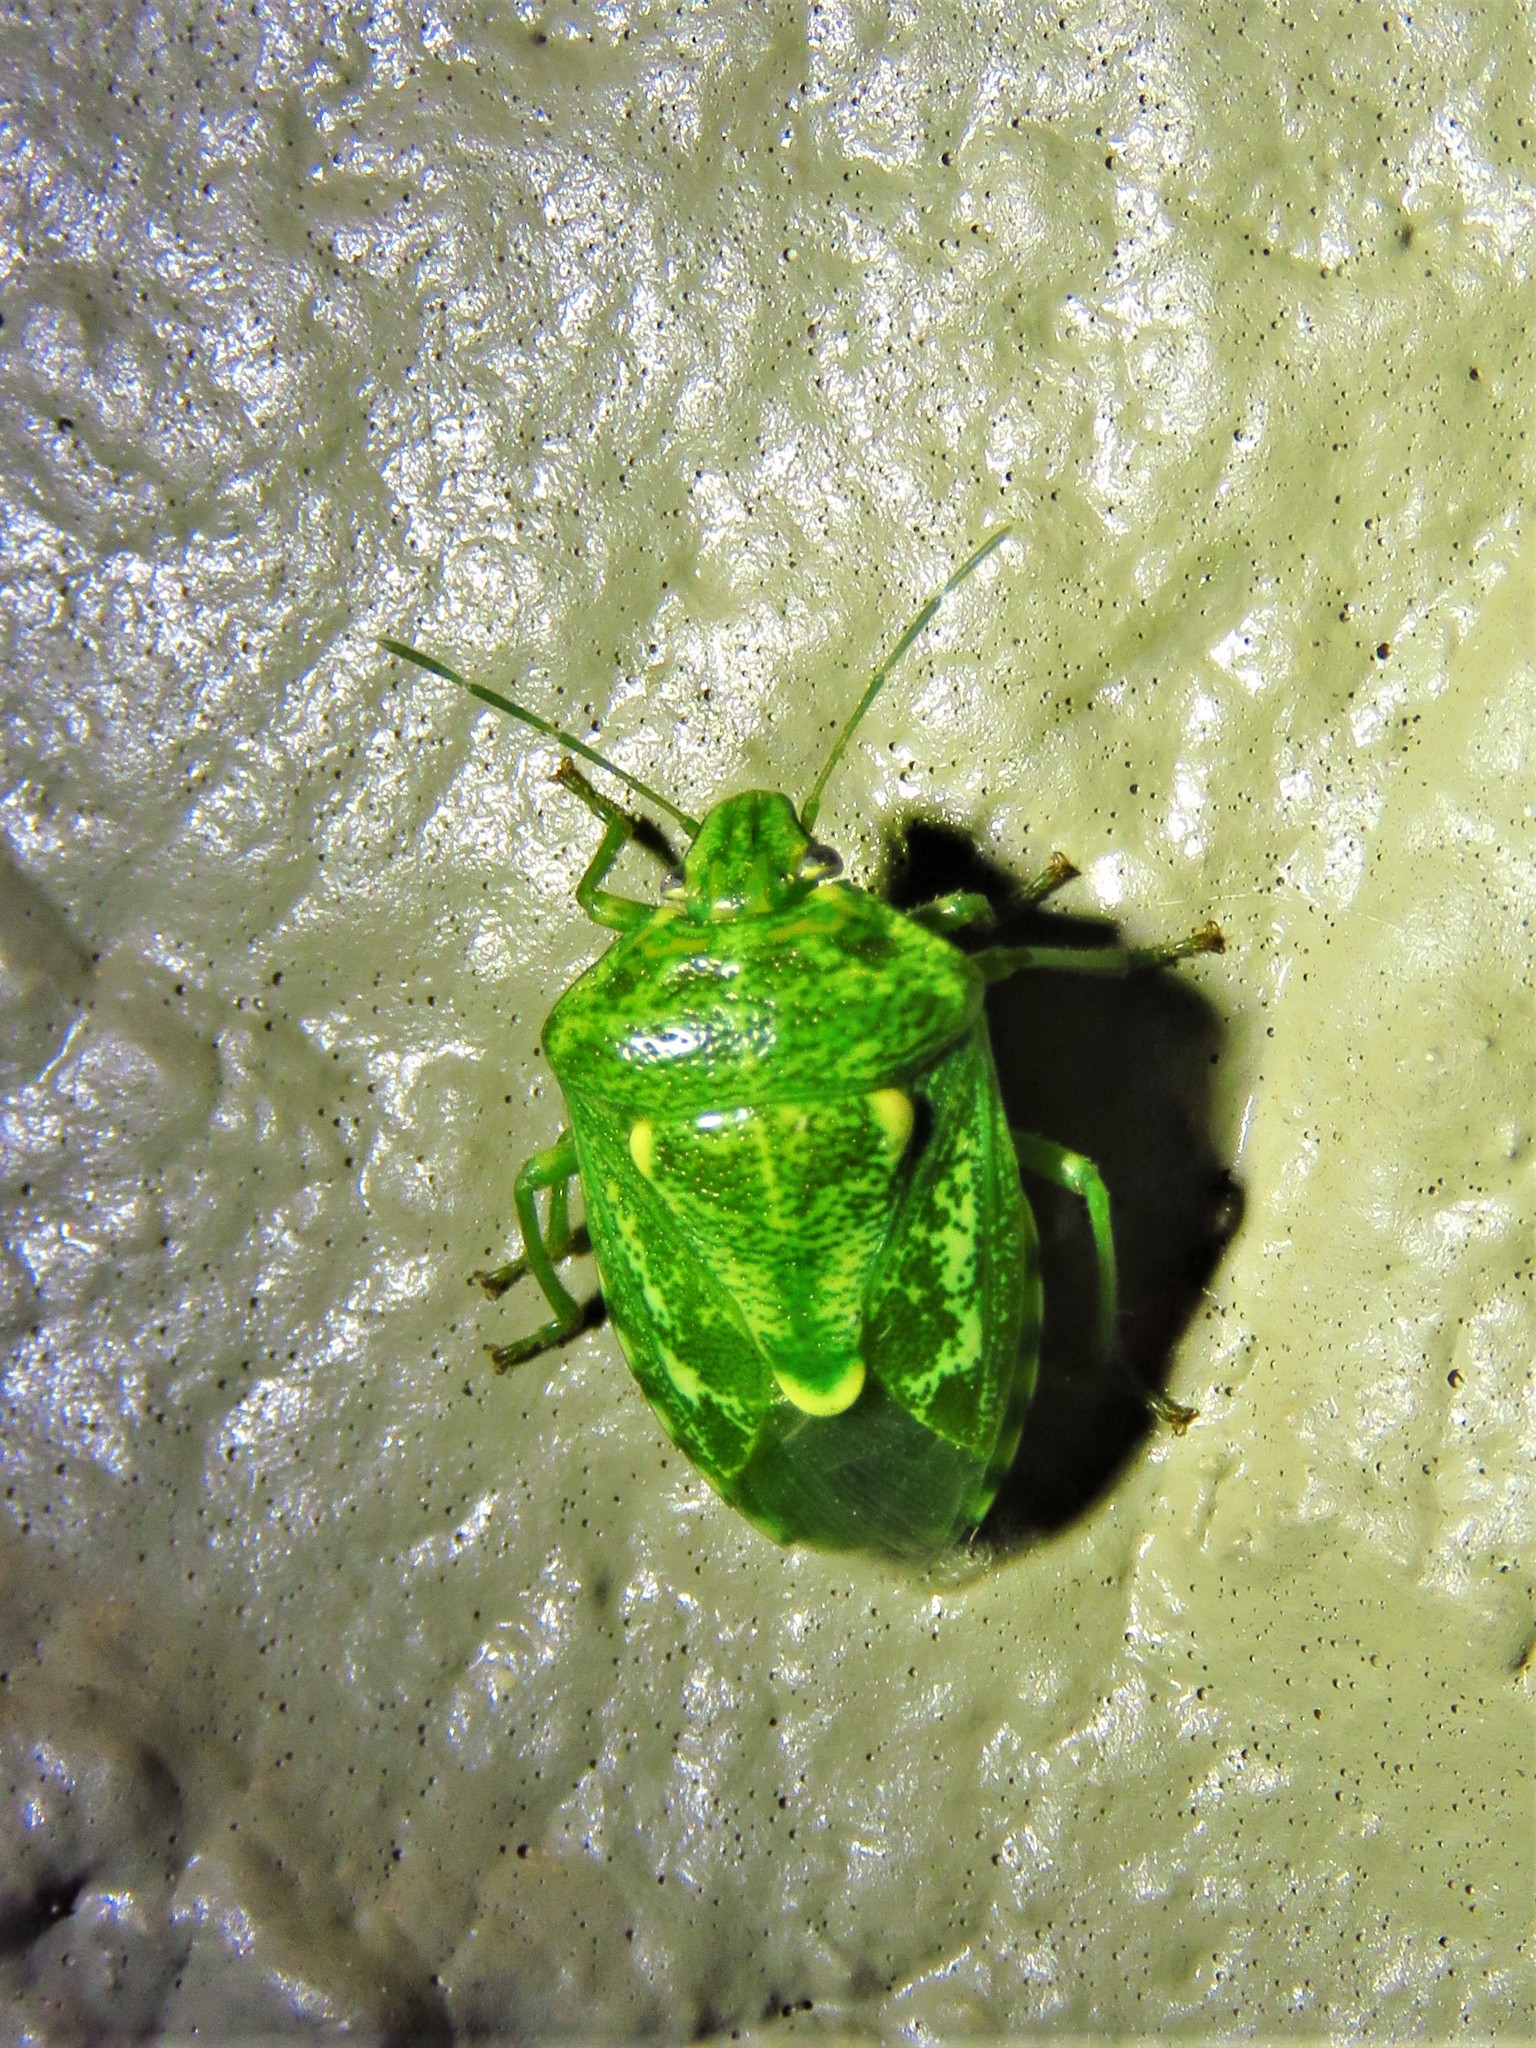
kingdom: Animalia
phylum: Arthropoda
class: Insecta
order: Hemiptera
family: Pentatomidae
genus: Banasa
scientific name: Banasa euchlora
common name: Cedar berry bug
